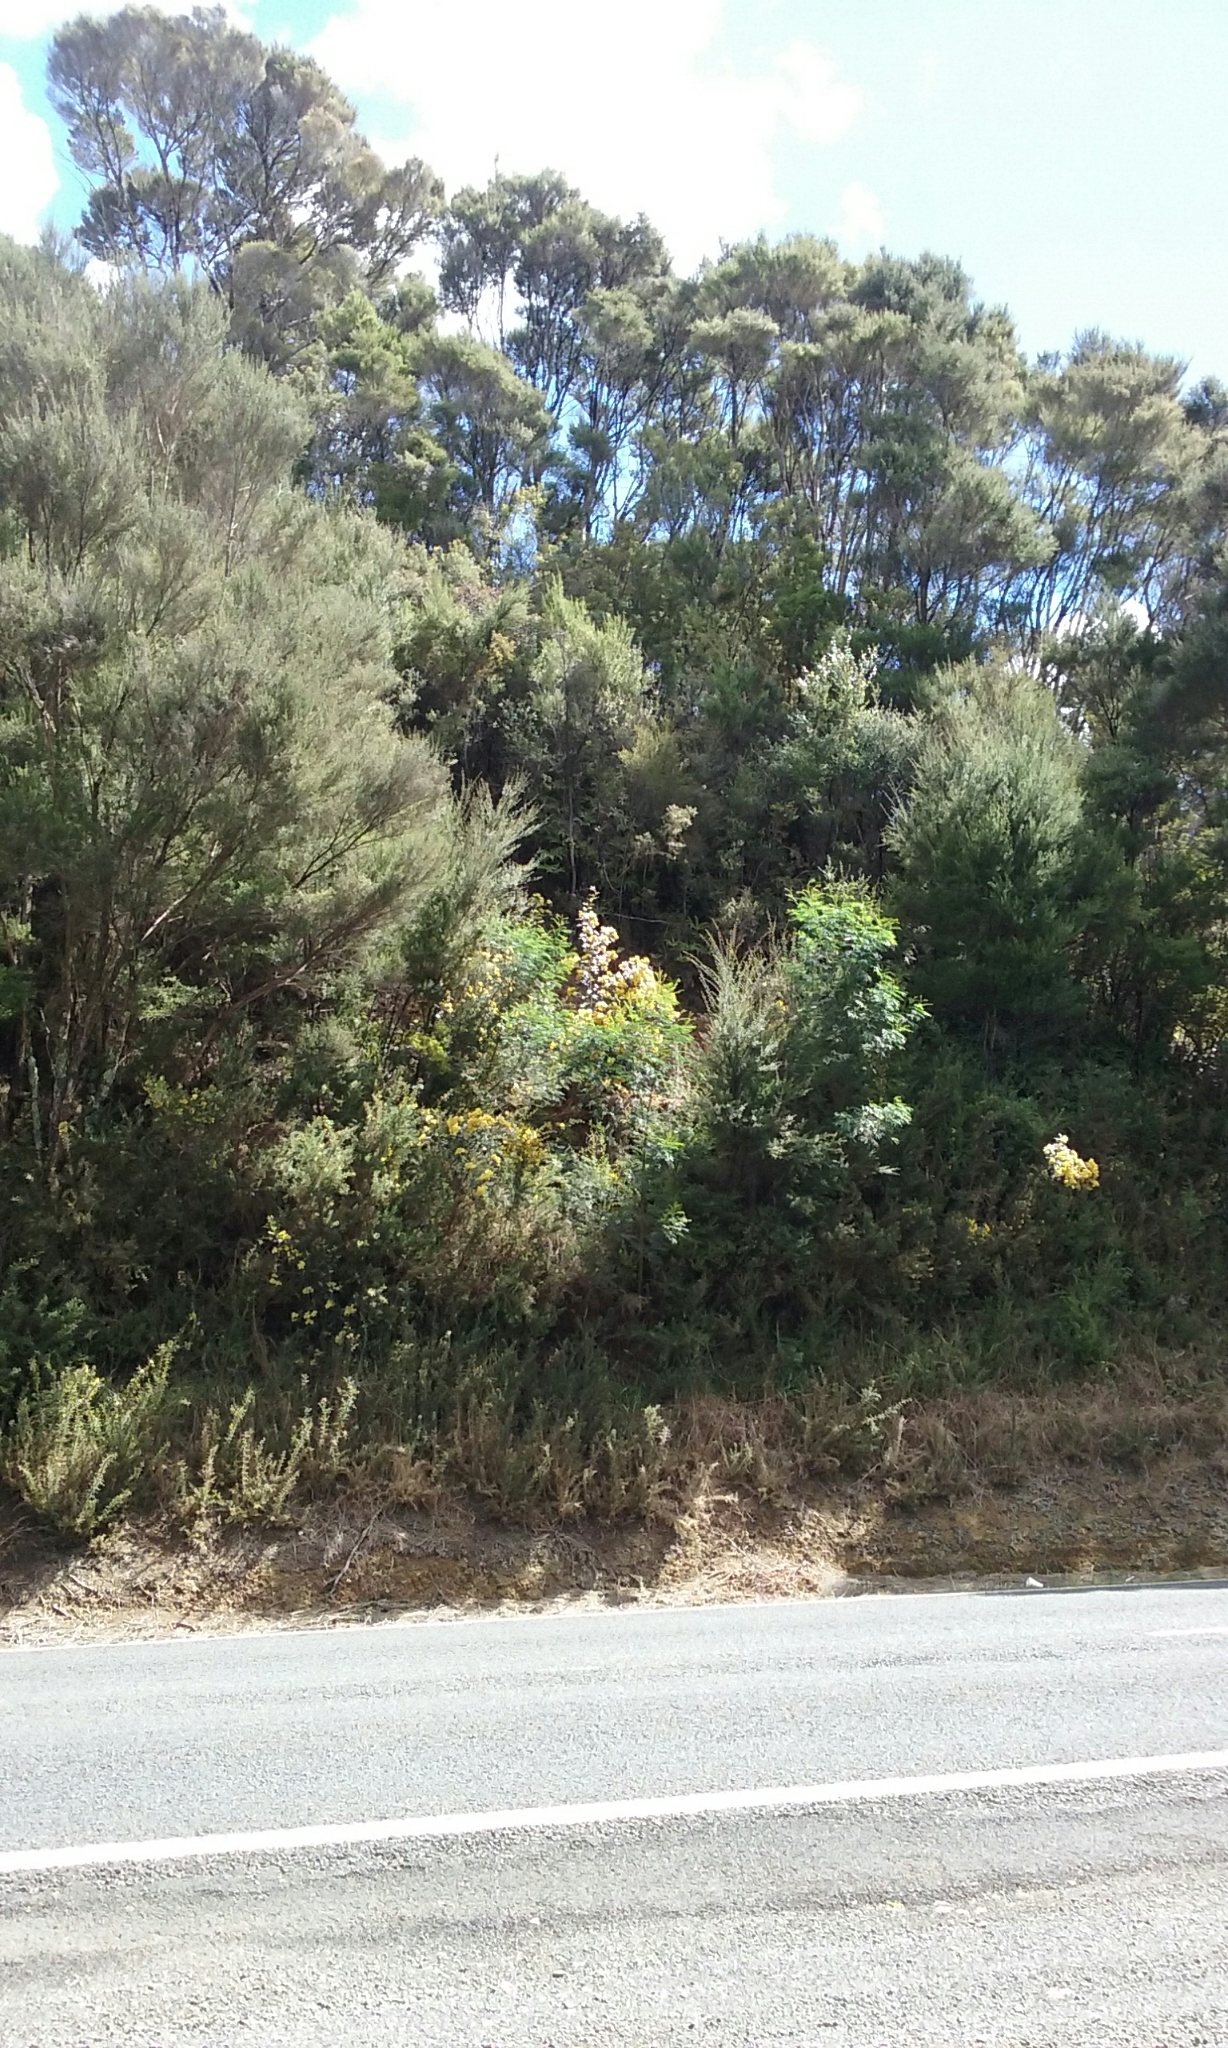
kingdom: Plantae
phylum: Tracheophyta
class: Magnoliopsida
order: Rosales
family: Rhamnaceae
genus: Pomaderris
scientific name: Pomaderris kumeraho
